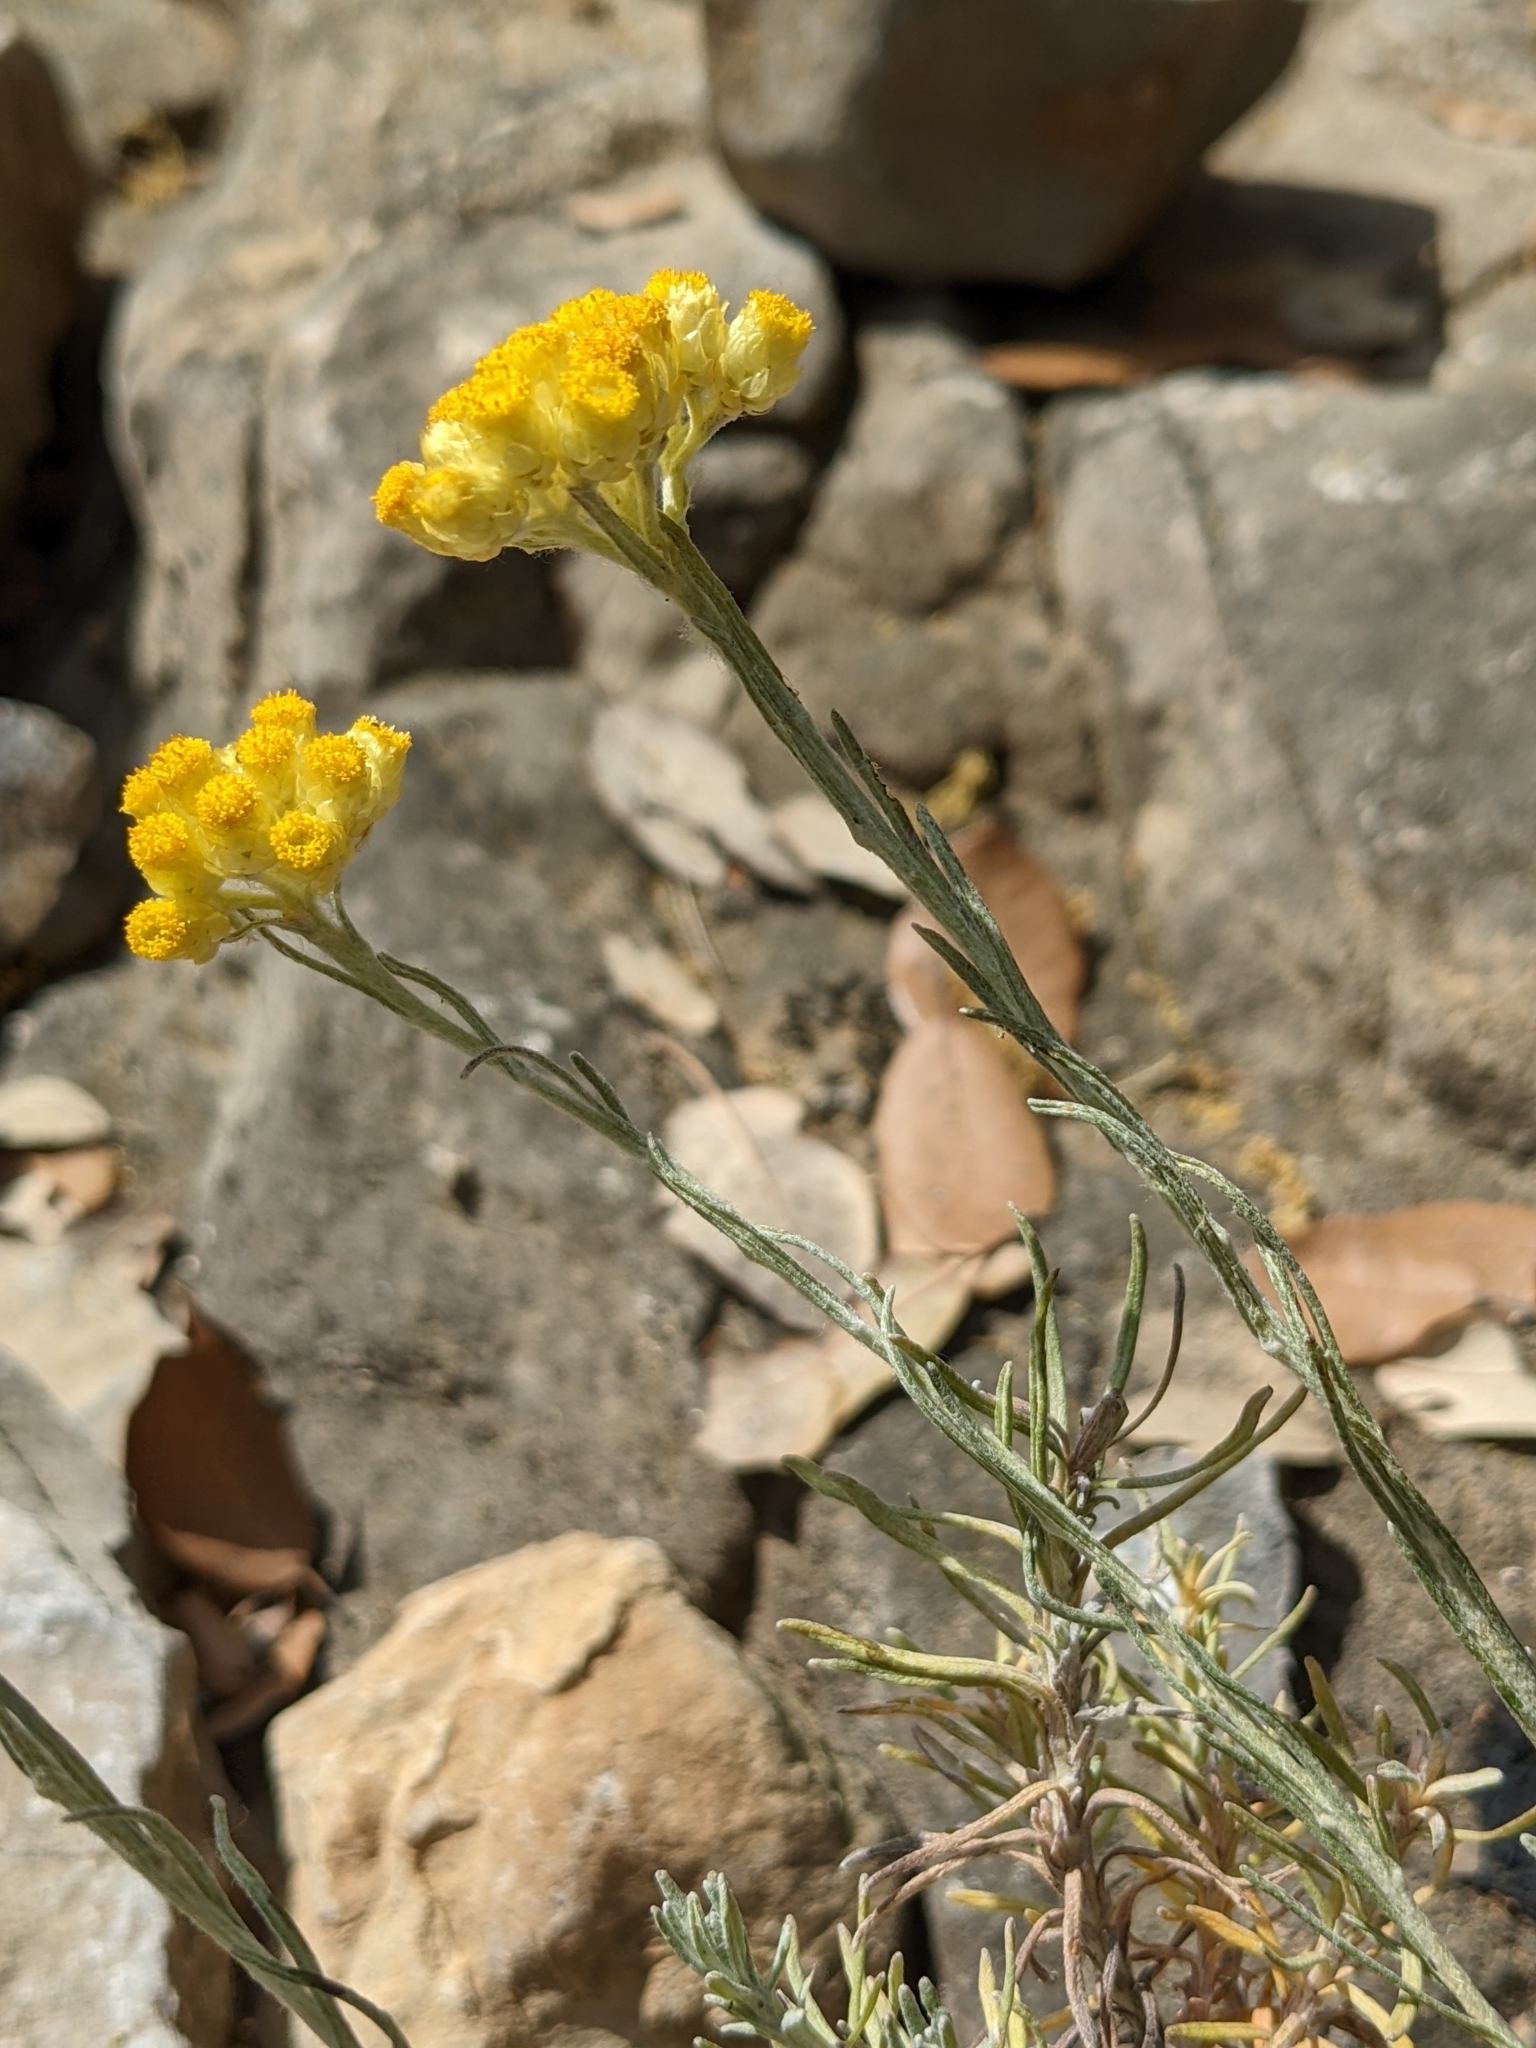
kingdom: Plantae
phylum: Tracheophyta
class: Magnoliopsida
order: Asterales
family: Asteraceae
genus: Helichrysum
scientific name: Helichrysum stoechas
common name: Goldilocks
